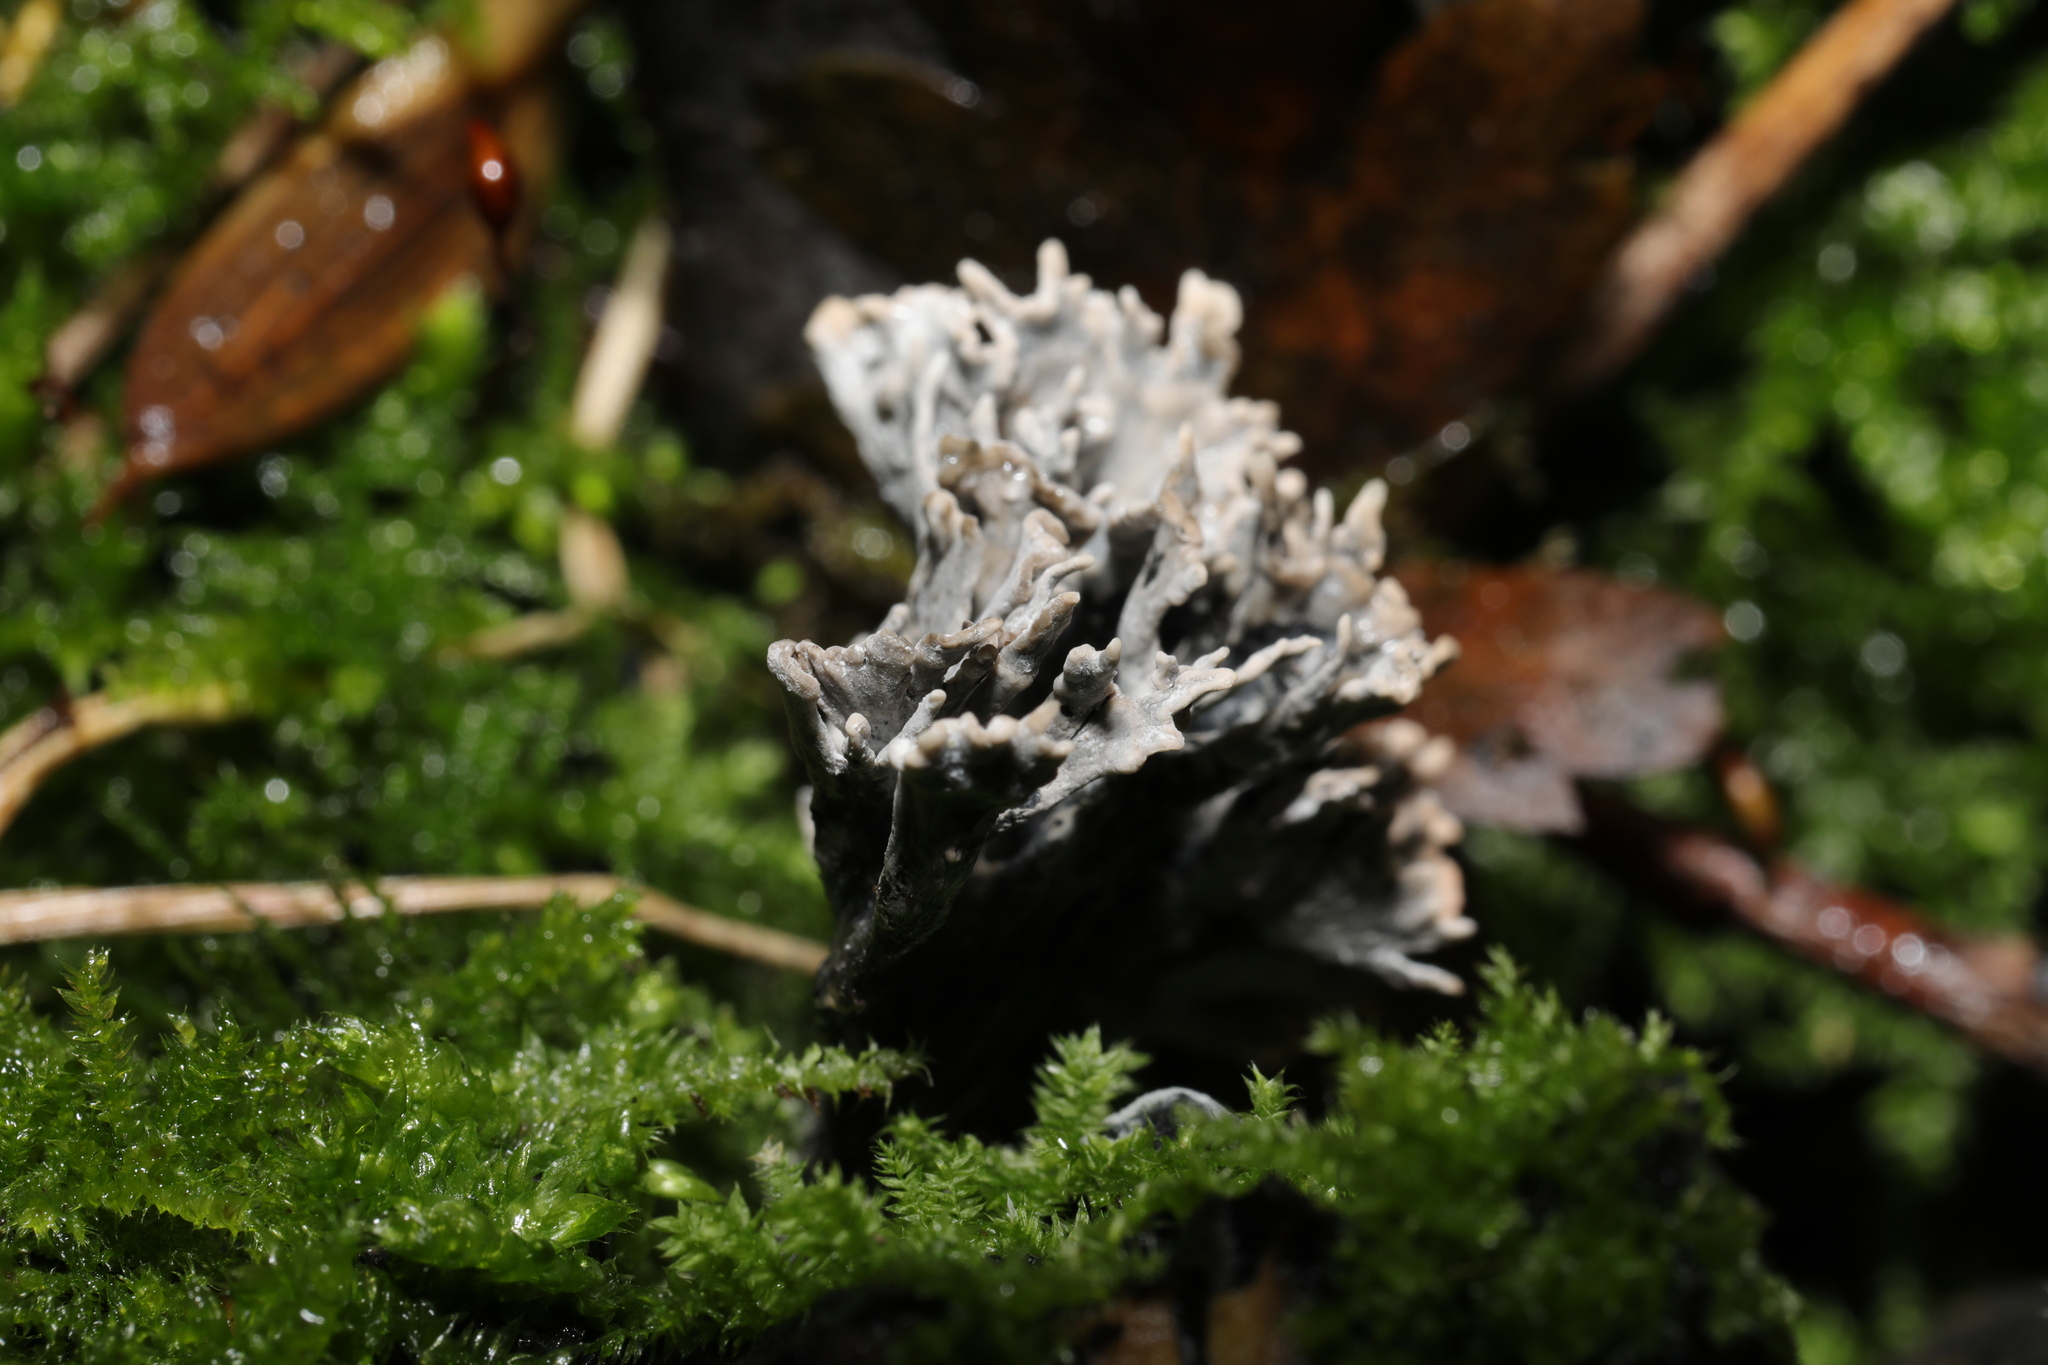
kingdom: Fungi
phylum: Ascomycota
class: Sordariomycetes
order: Xylariales
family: Xylariaceae
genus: Xylaria
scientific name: Xylaria hypoxylon
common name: Candle-snuff fungus
